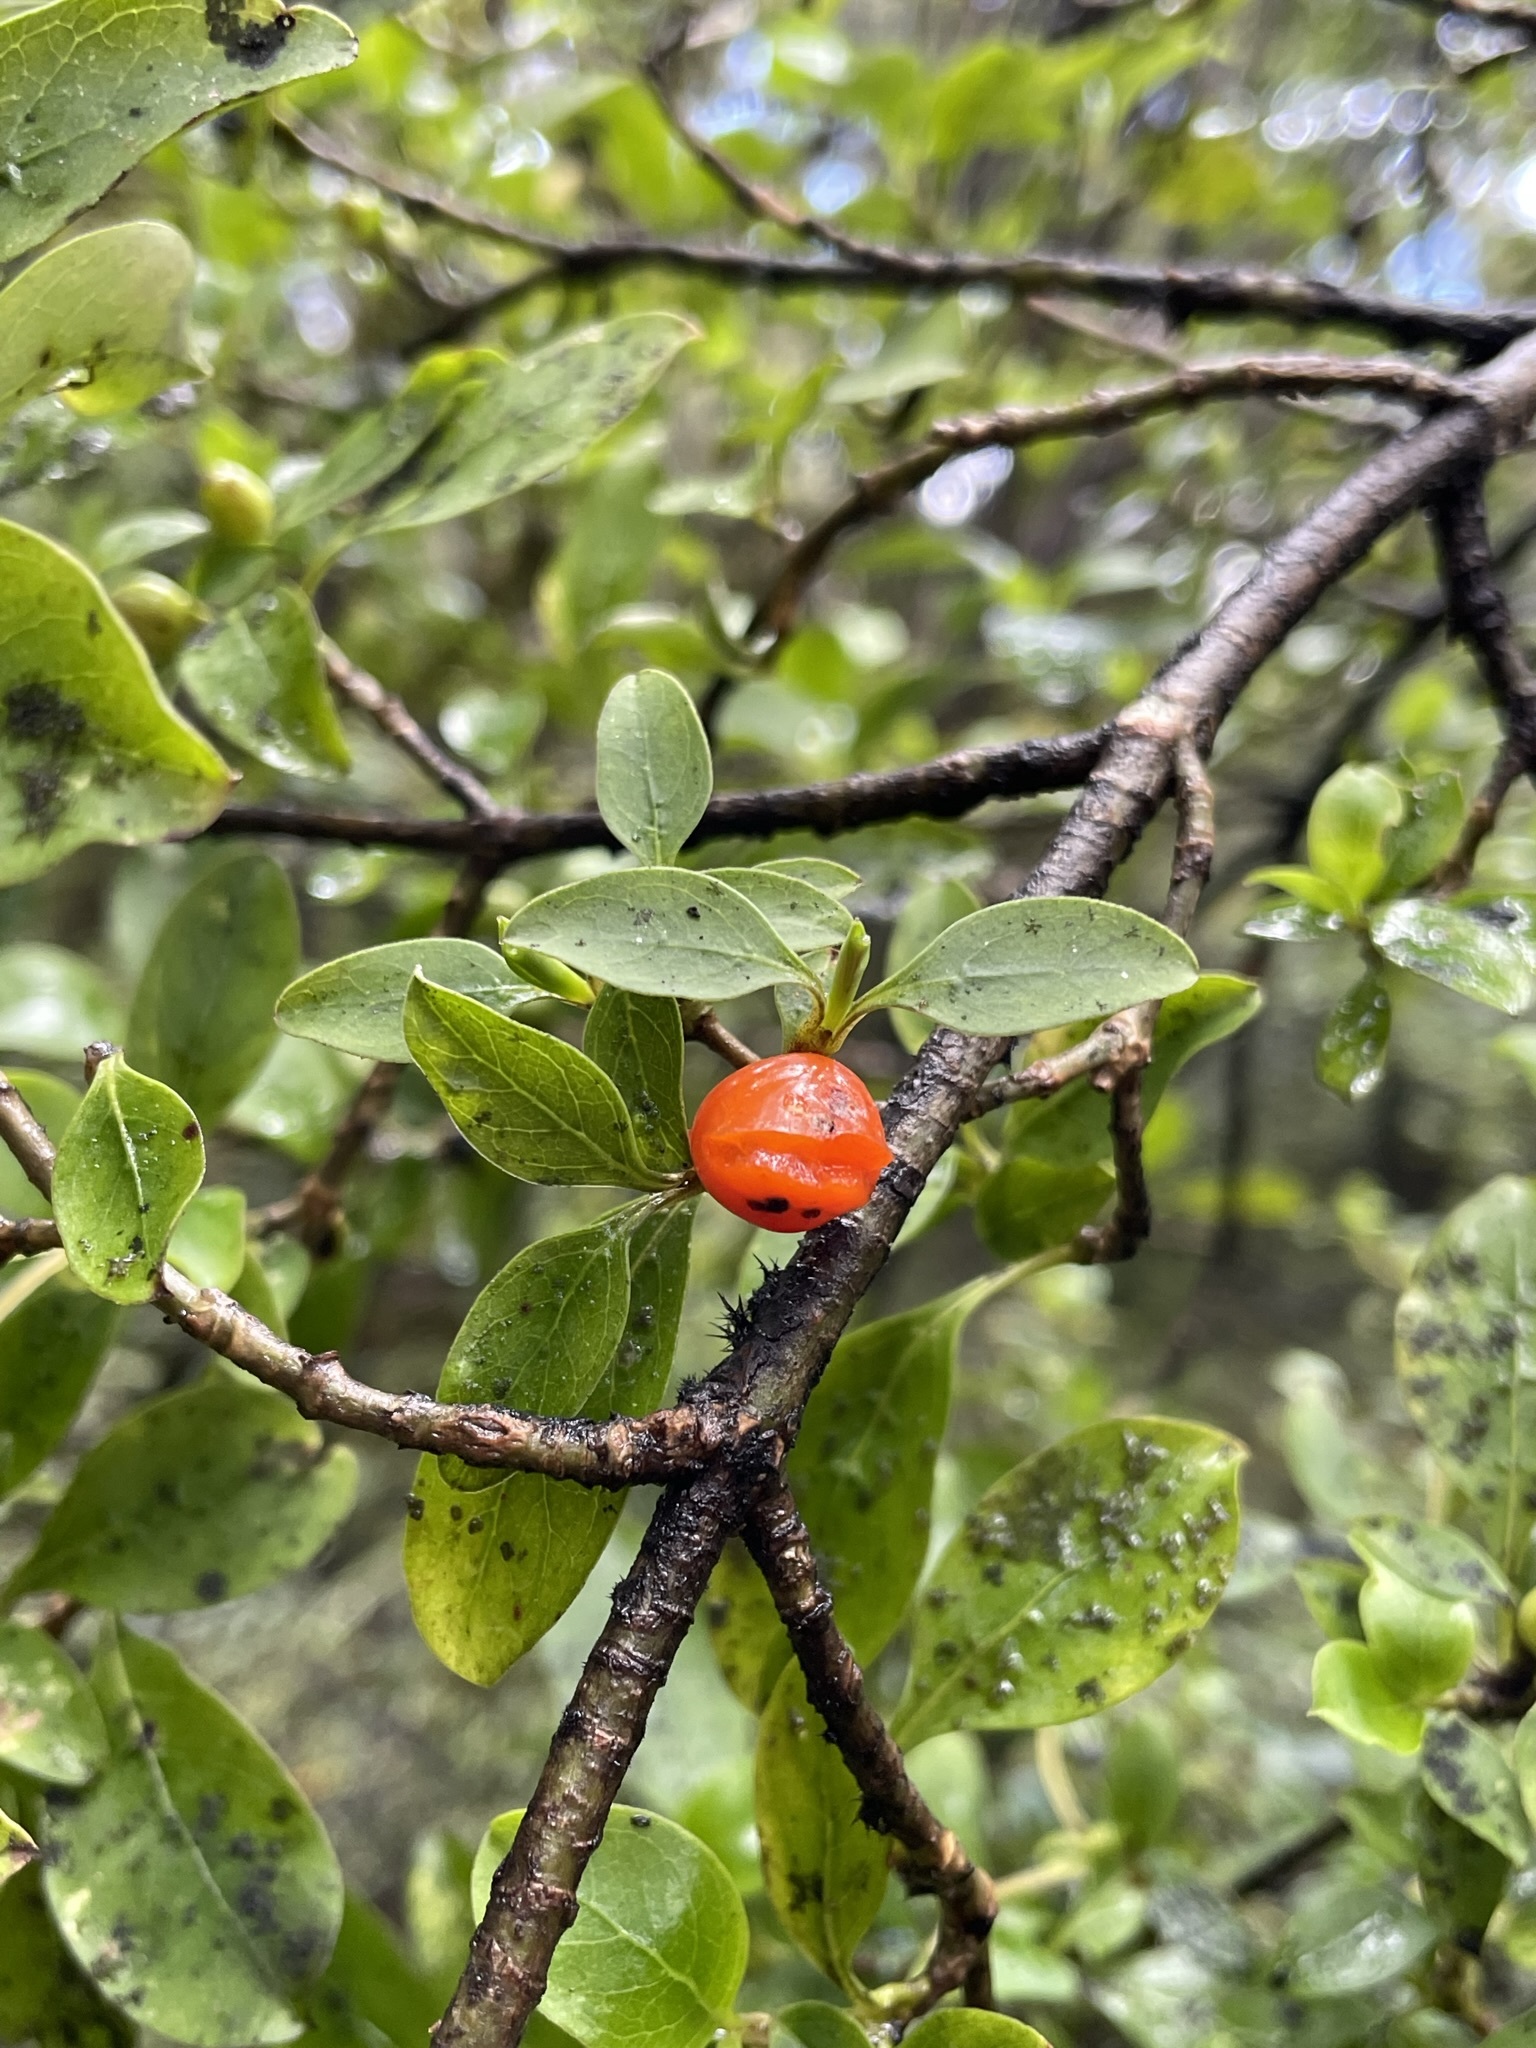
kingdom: Plantae
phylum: Tracheophyta
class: Magnoliopsida
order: Gentianales
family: Rubiaceae
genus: Coprosma
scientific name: Coprosma foetidissima
